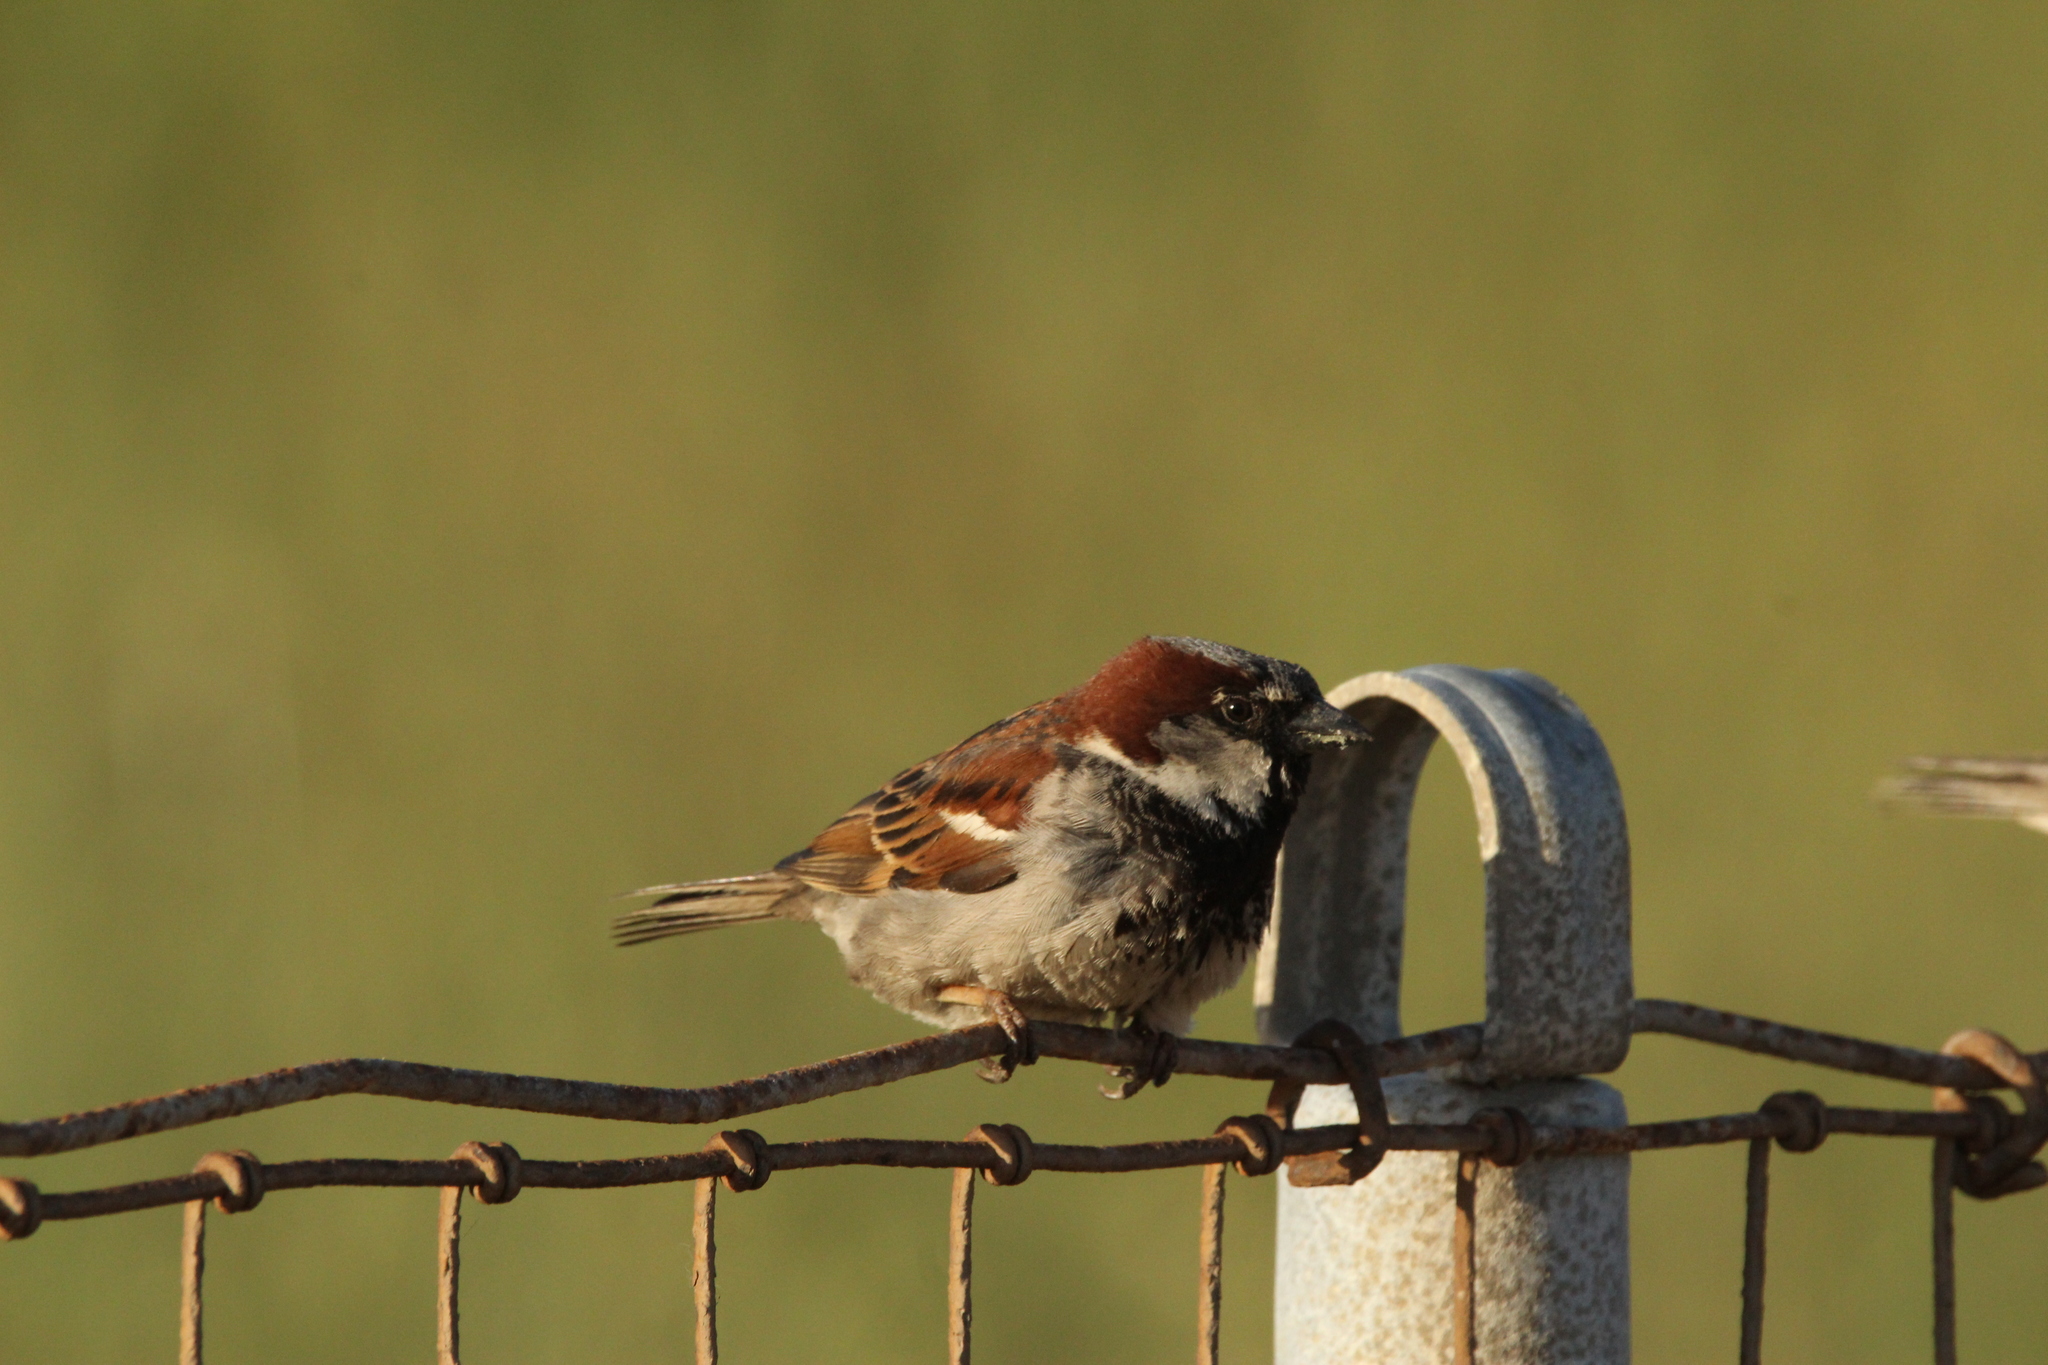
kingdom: Animalia
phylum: Chordata
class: Aves
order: Passeriformes
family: Passeridae
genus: Passer
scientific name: Passer domesticus
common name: House sparrow
